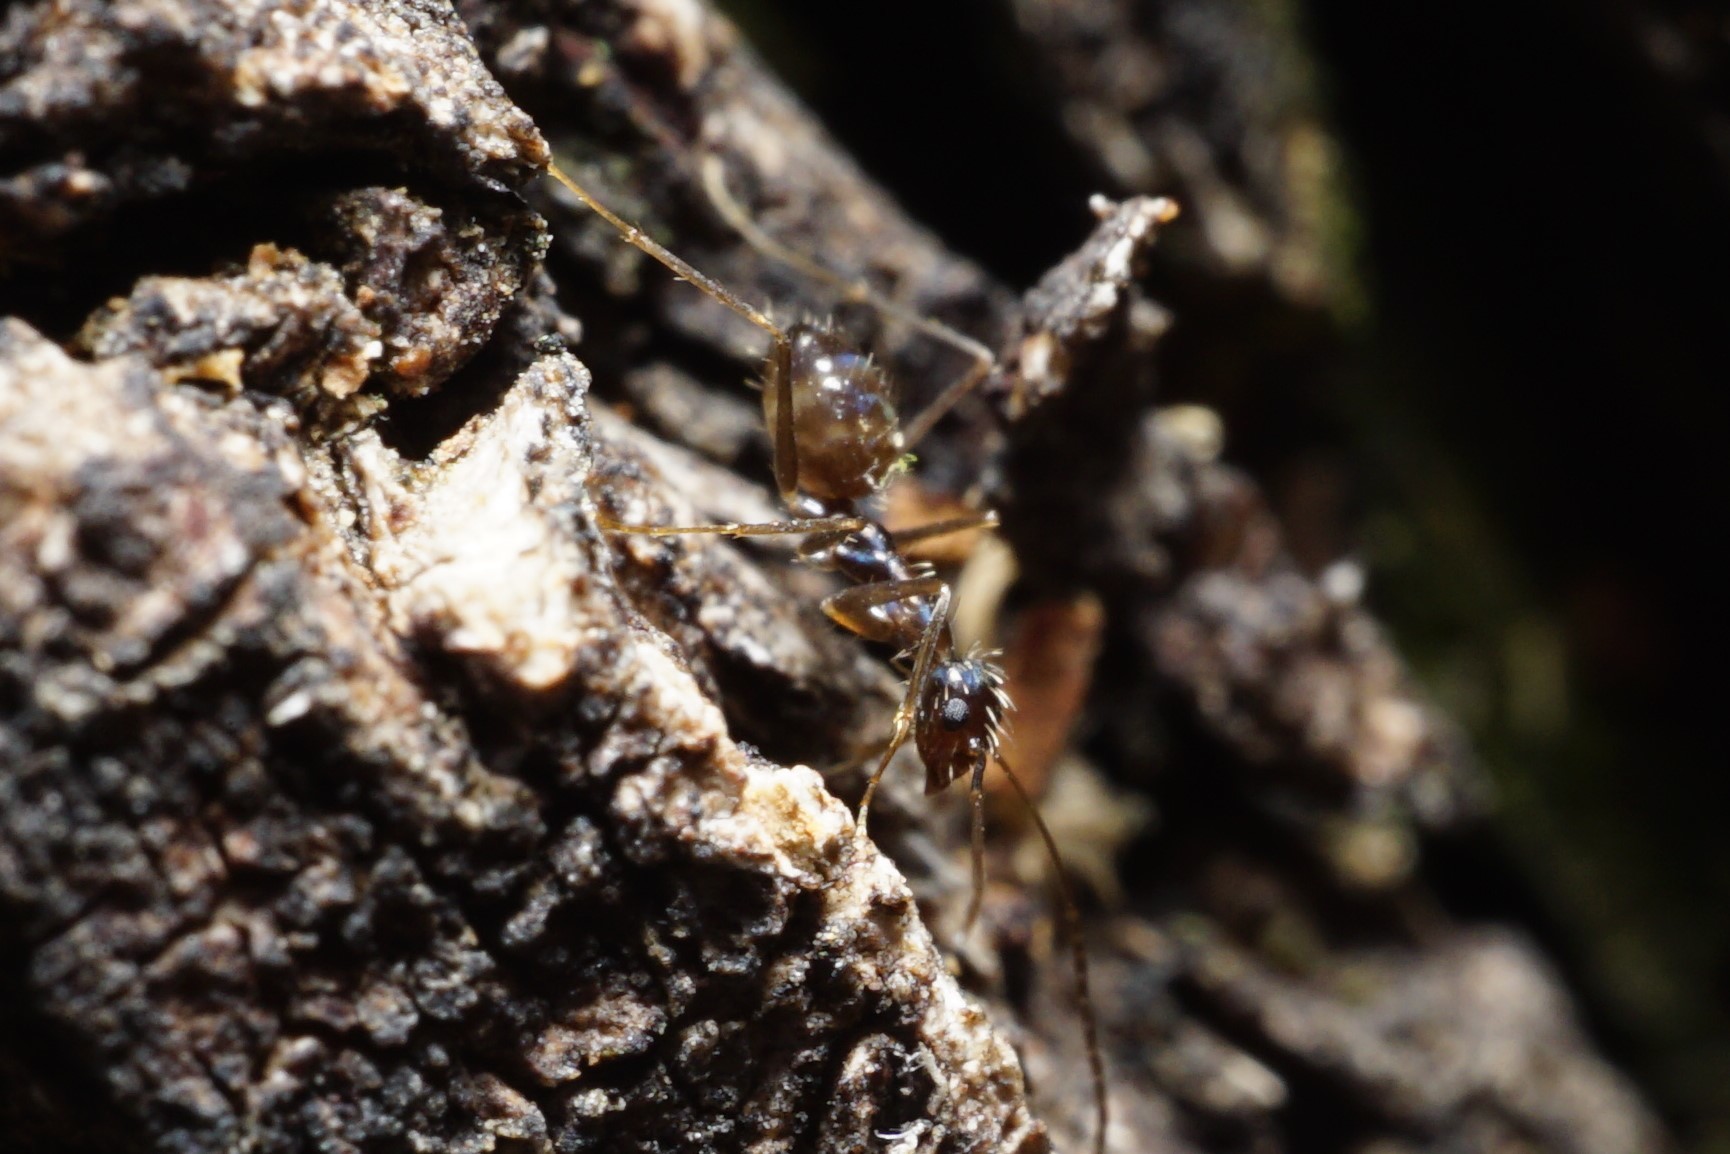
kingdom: Animalia
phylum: Arthropoda
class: Insecta
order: Hymenoptera
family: Formicidae
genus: Paratrechina
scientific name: Paratrechina longicornis
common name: Longhorned crazy ant
